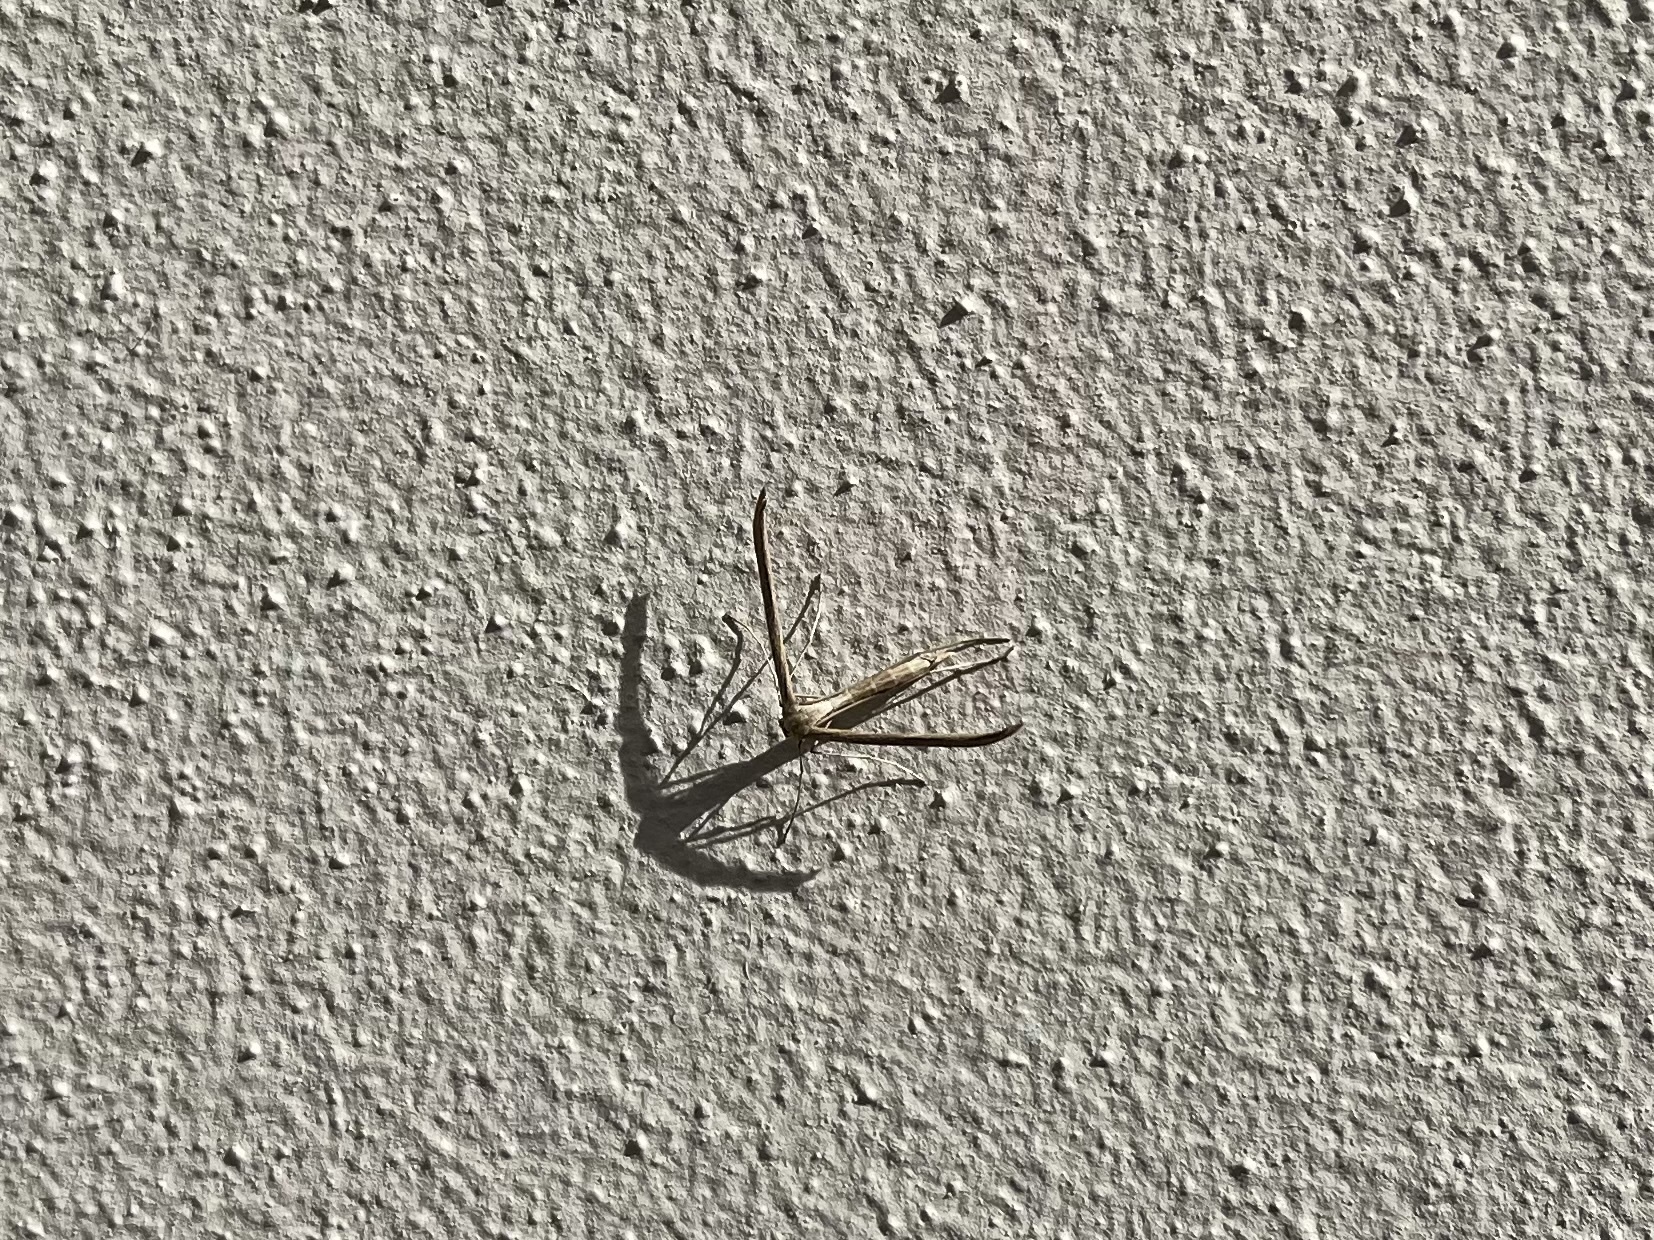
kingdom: Animalia
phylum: Arthropoda
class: Insecta
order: Lepidoptera
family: Pterophoridae
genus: Emmelina
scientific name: Emmelina monodactyla
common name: Common plume
